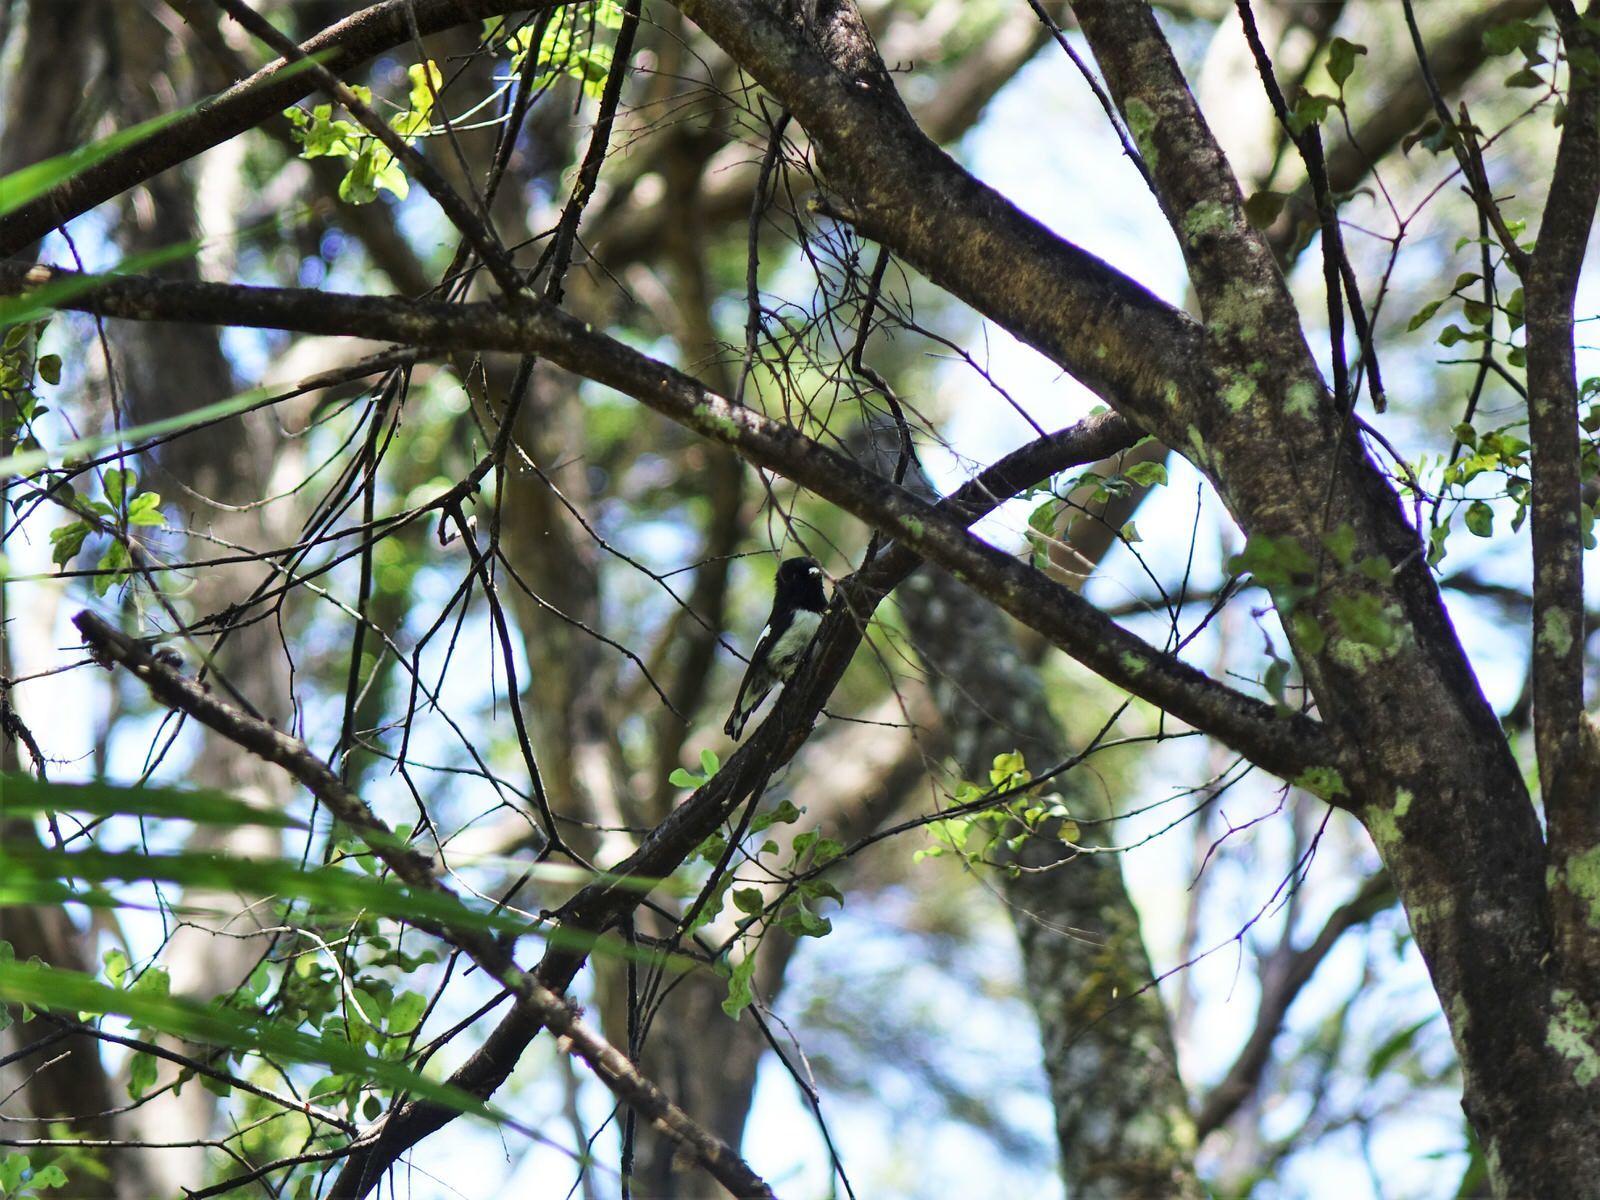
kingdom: Animalia
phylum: Chordata
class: Aves
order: Passeriformes
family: Petroicidae
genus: Petroica
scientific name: Petroica macrocephala
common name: Tomtit
